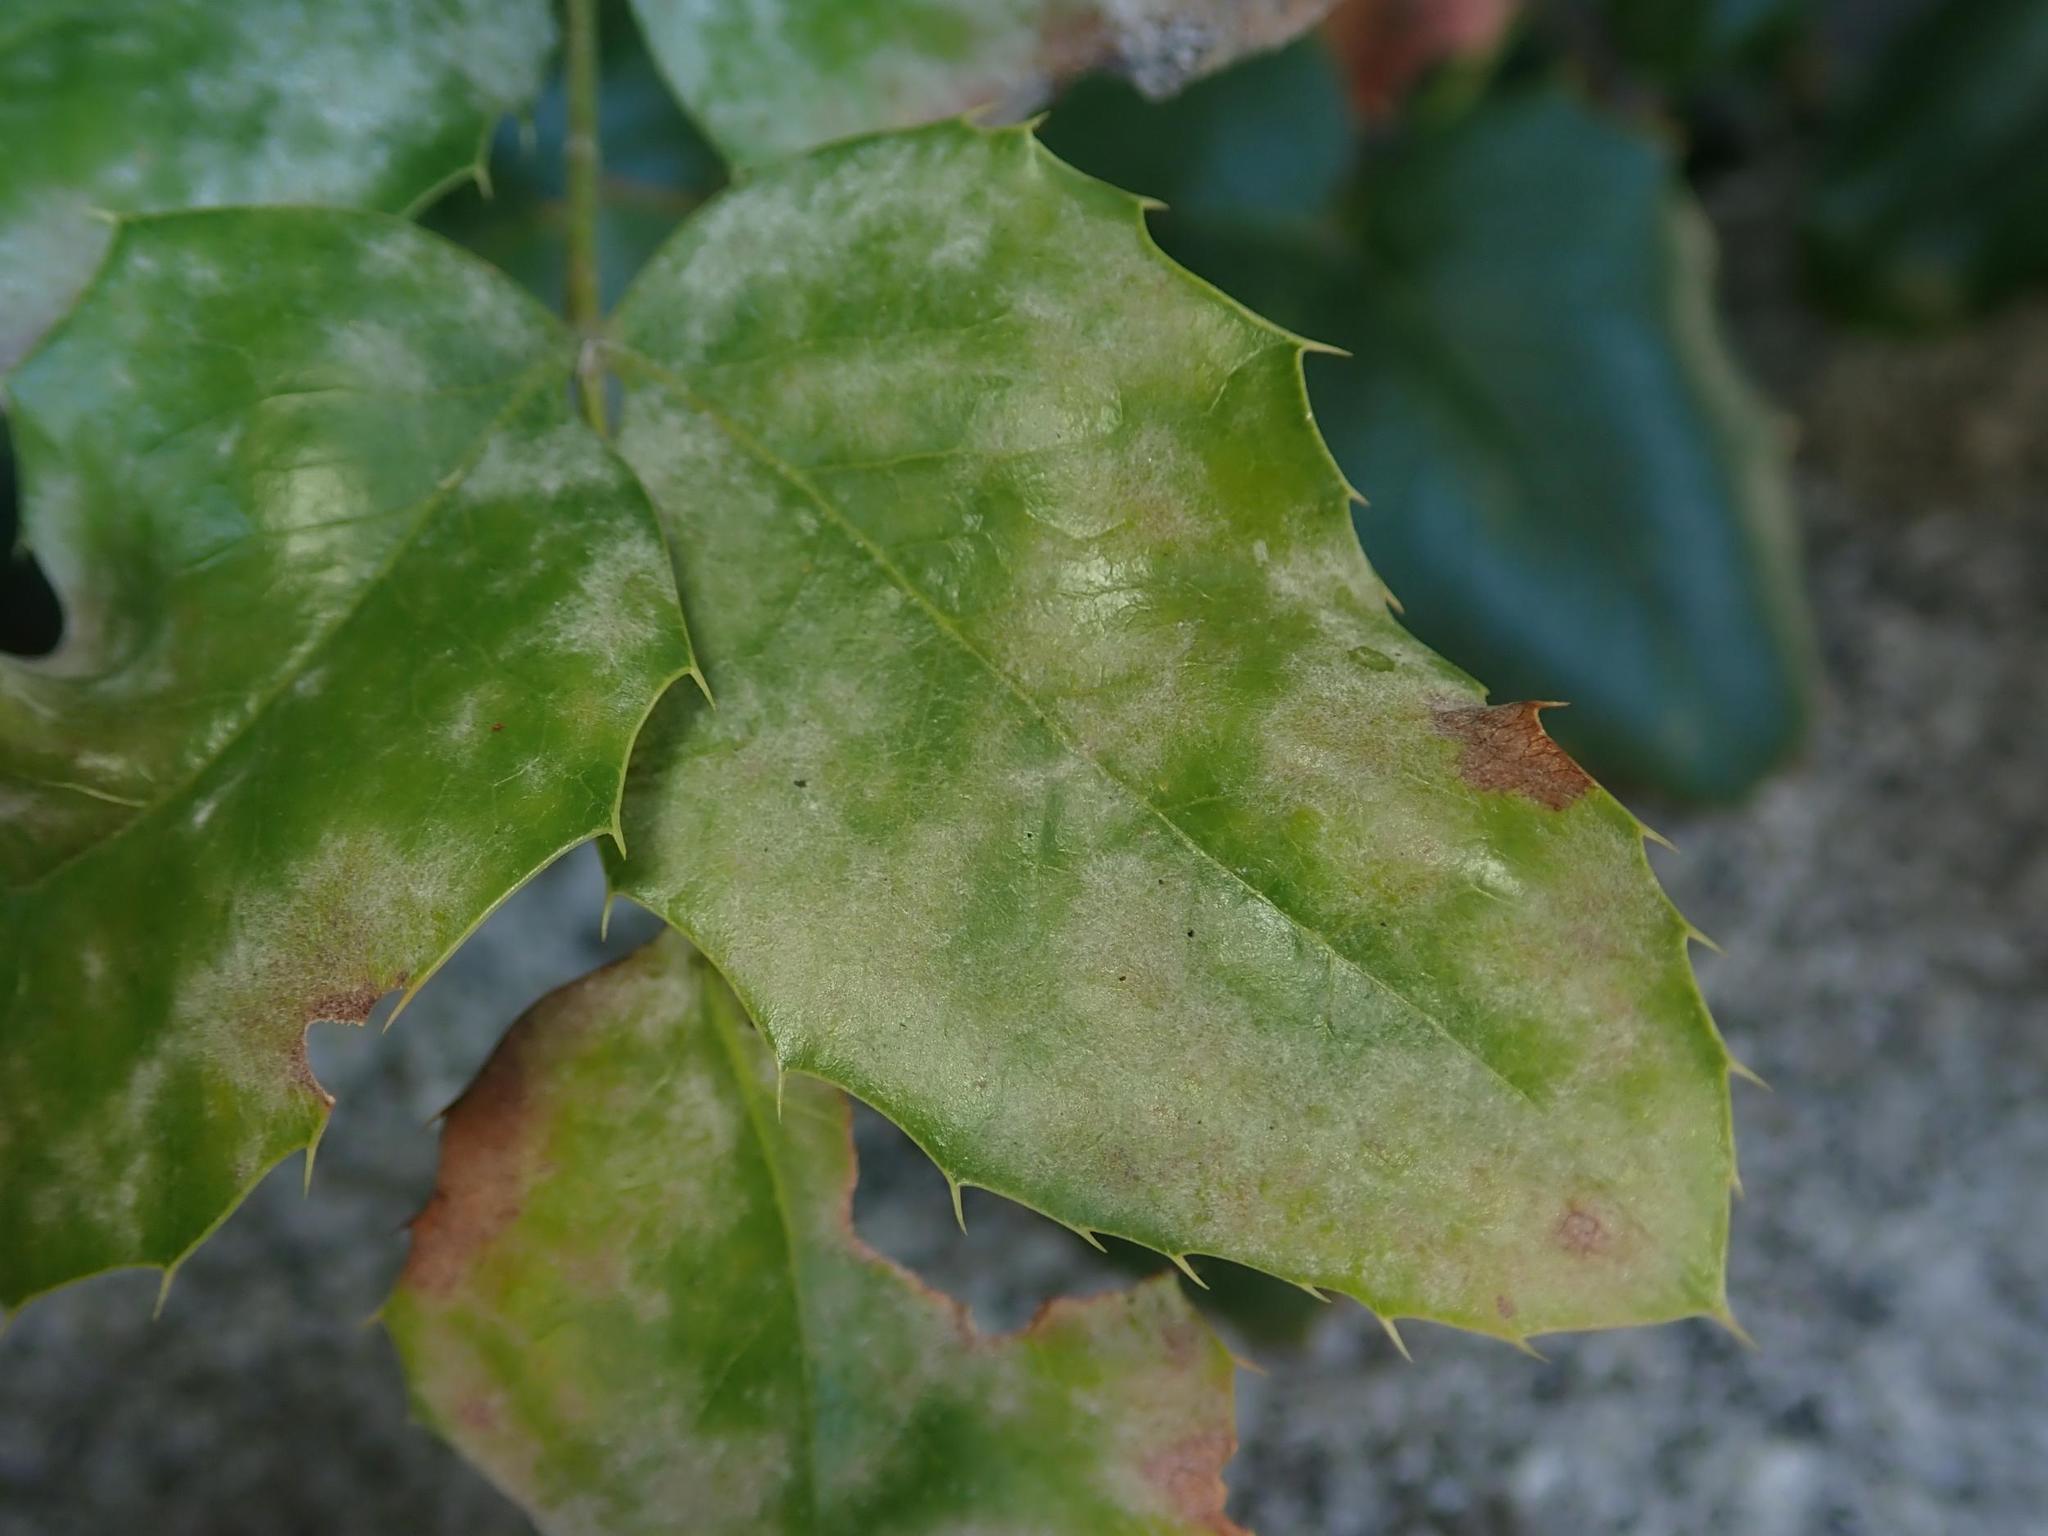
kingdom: Fungi
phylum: Ascomycota
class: Leotiomycetes
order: Helotiales
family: Erysiphaceae
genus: Erysiphe
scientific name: Erysiphe berberidis
